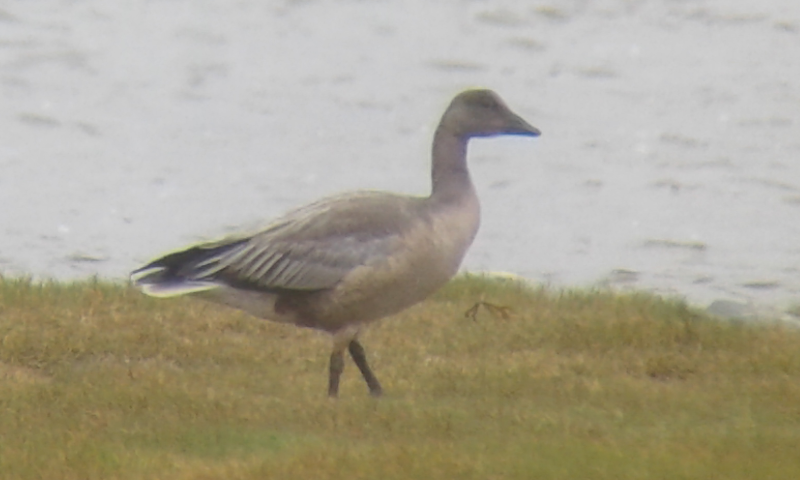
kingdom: Animalia
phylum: Chordata
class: Aves
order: Anseriformes
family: Anatidae
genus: Anser
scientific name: Anser caerulescens
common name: Snow goose
